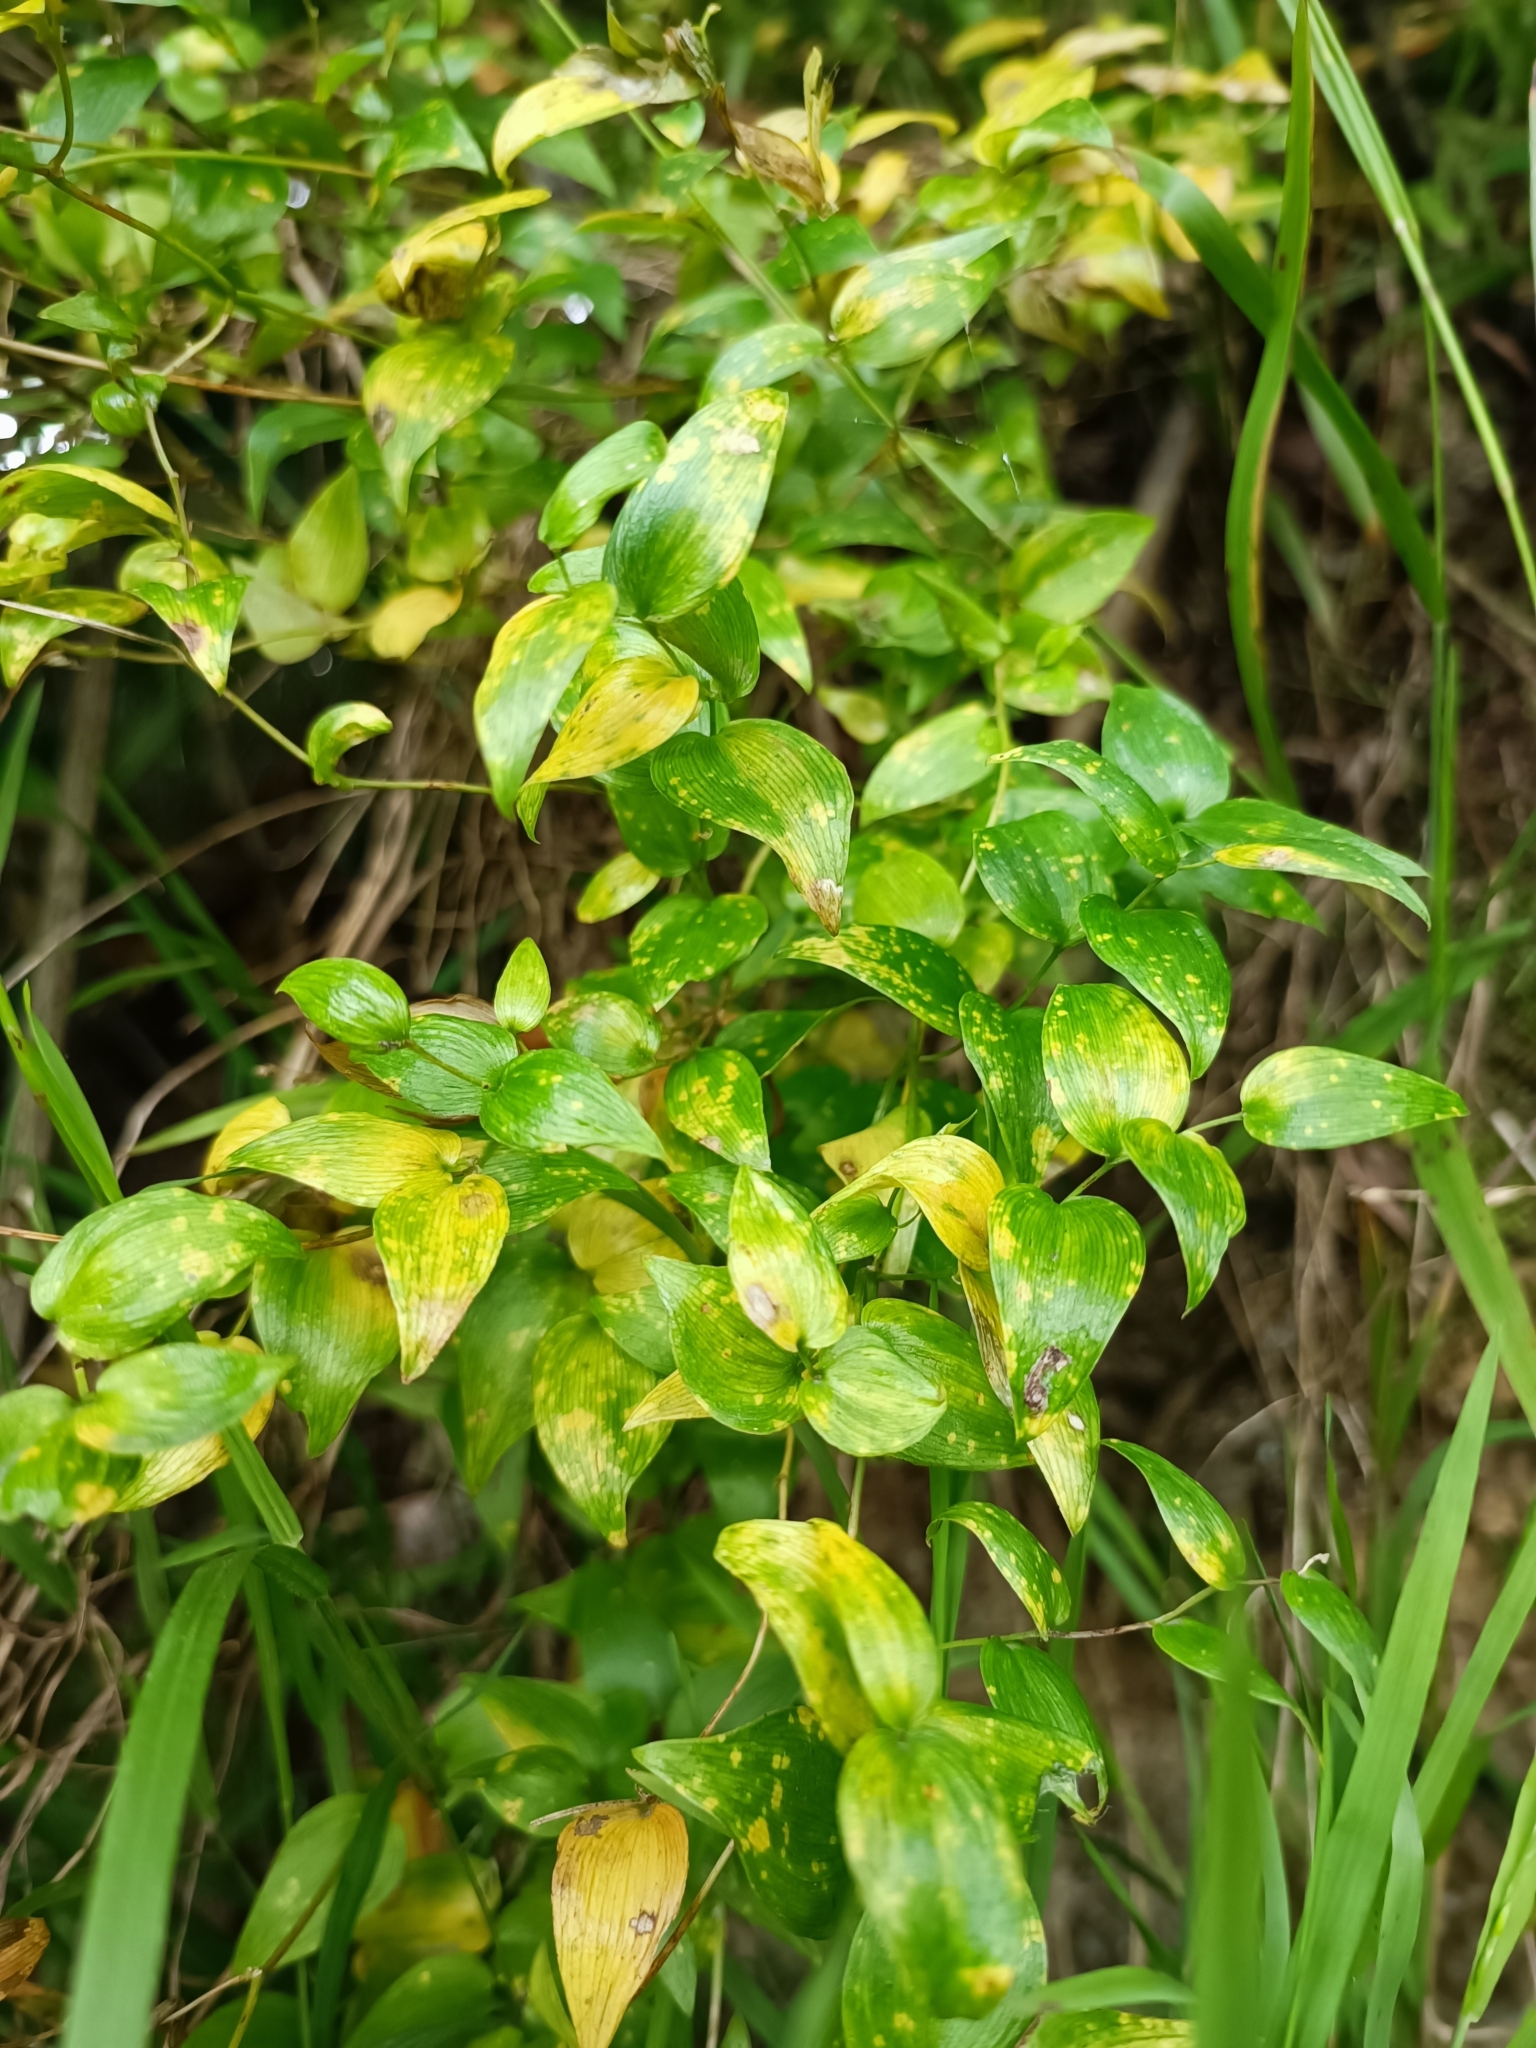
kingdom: Plantae
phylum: Tracheophyta
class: Liliopsida
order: Asparagales
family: Asparagaceae
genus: Asparagus
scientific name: Asparagus asparagoides
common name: African asparagus fern
